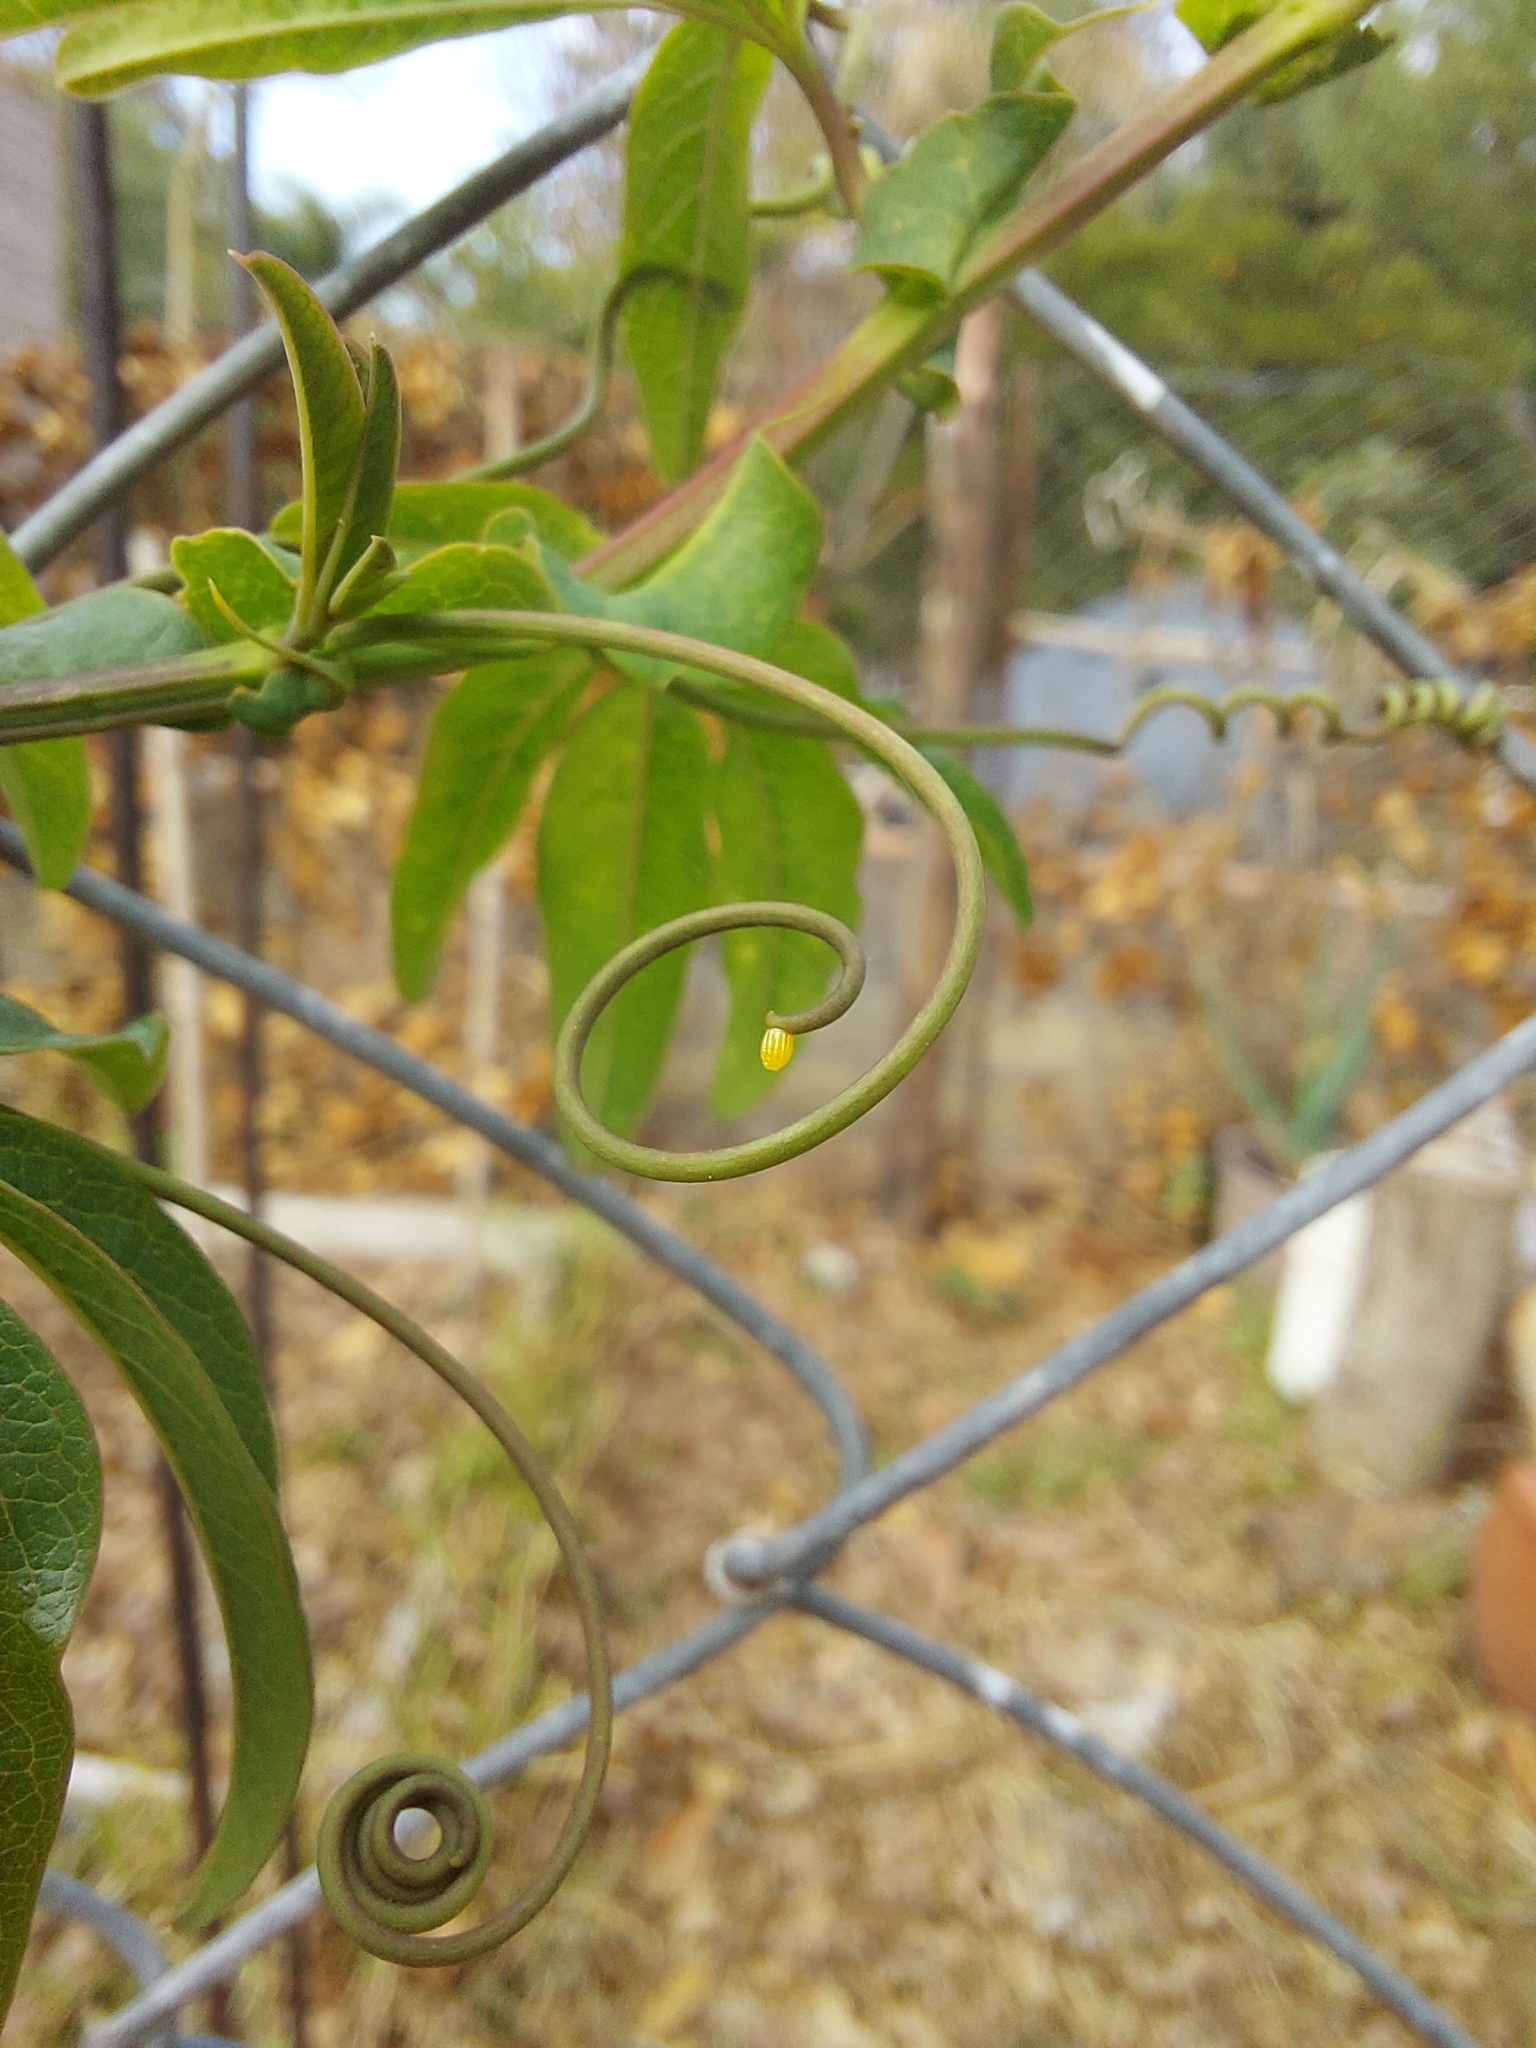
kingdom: Animalia
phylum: Arthropoda
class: Insecta
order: Lepidoptera
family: Nymphalidae
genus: Dione
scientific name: Dione vanillae
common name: Gulf fritillary
